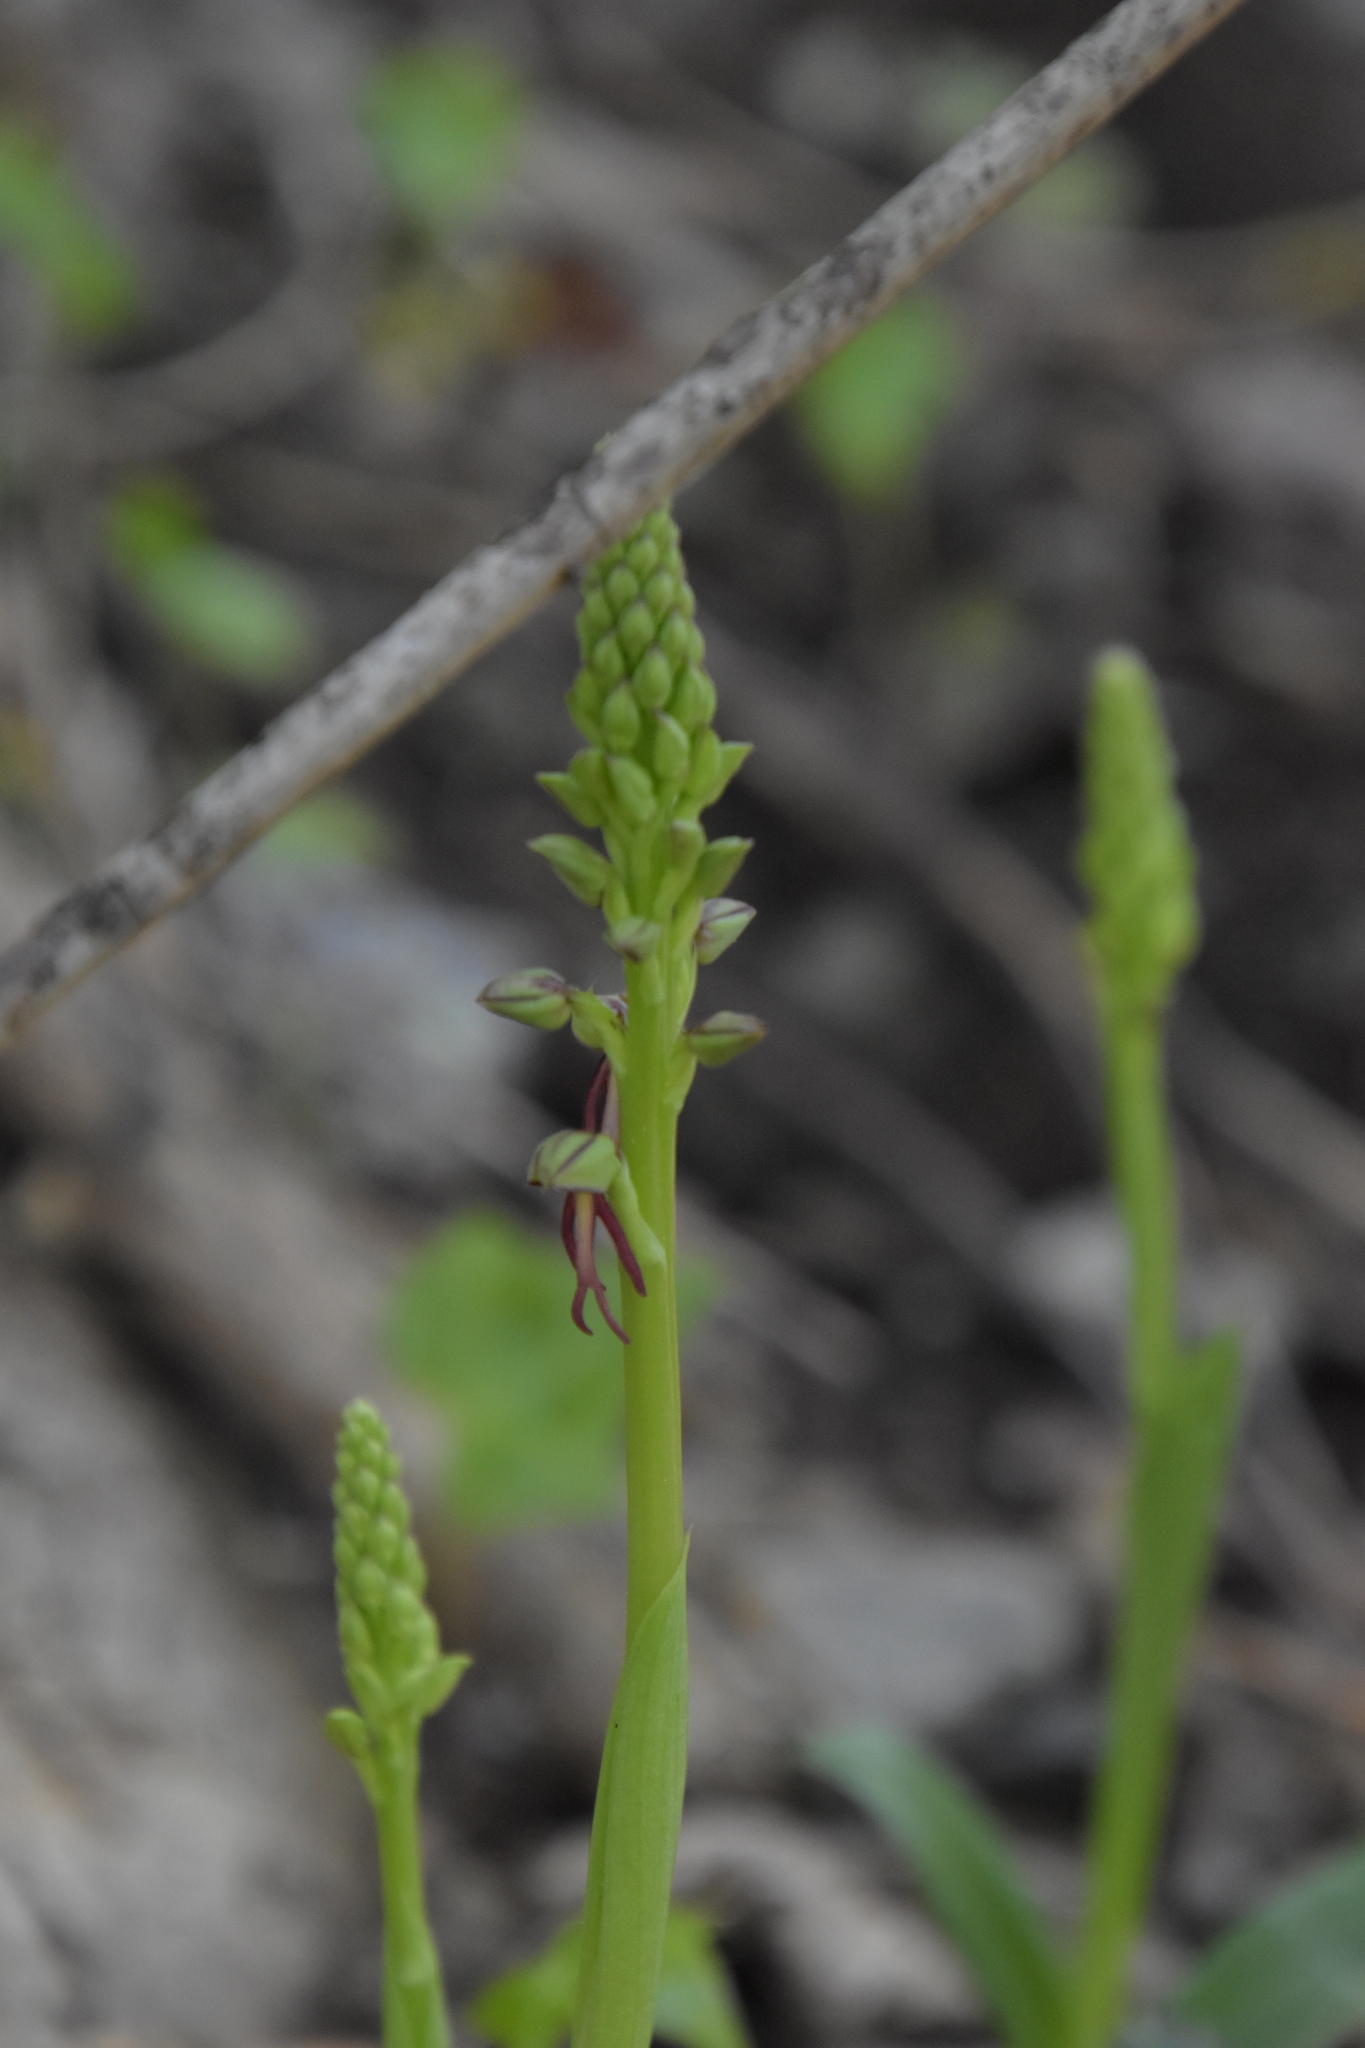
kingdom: Plantae
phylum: Tracheophyta
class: Liliopsida
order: Asparagales
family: Orchidaceae
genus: Orchis
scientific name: Orchis anthropophora
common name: Man orchid
